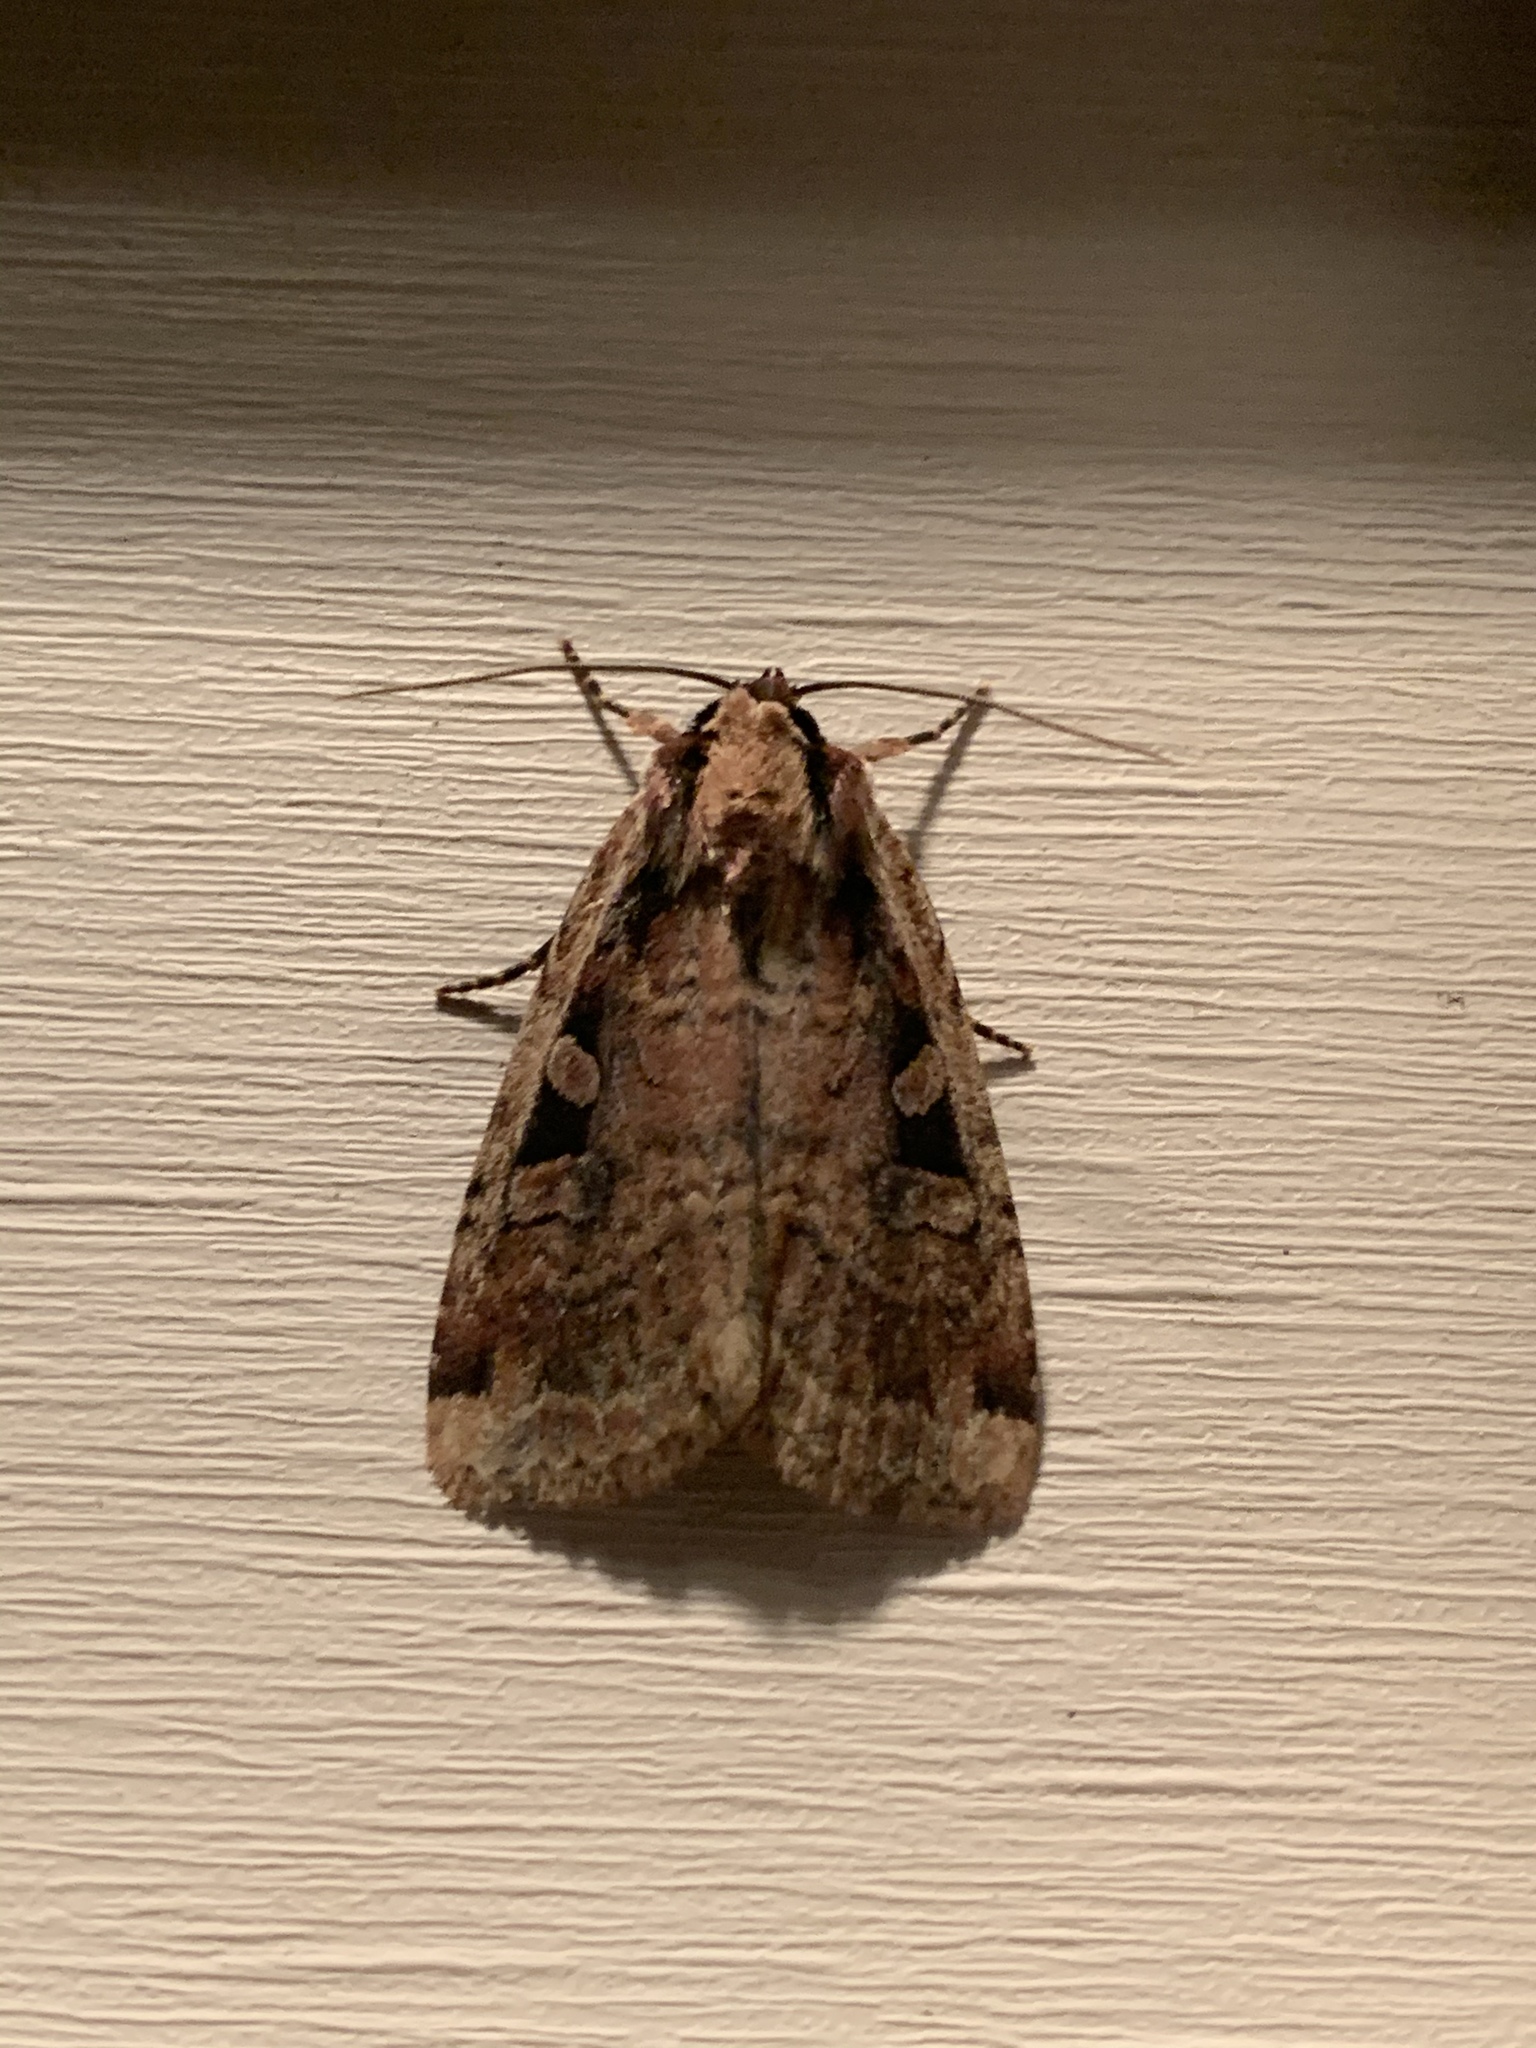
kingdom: Animalia
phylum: Arthropoda
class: Insecta
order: Lepidoptera
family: Noctuidae
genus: Eueretagrotis
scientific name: Eueretagrotis sigmoides
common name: Sigmoid dart
